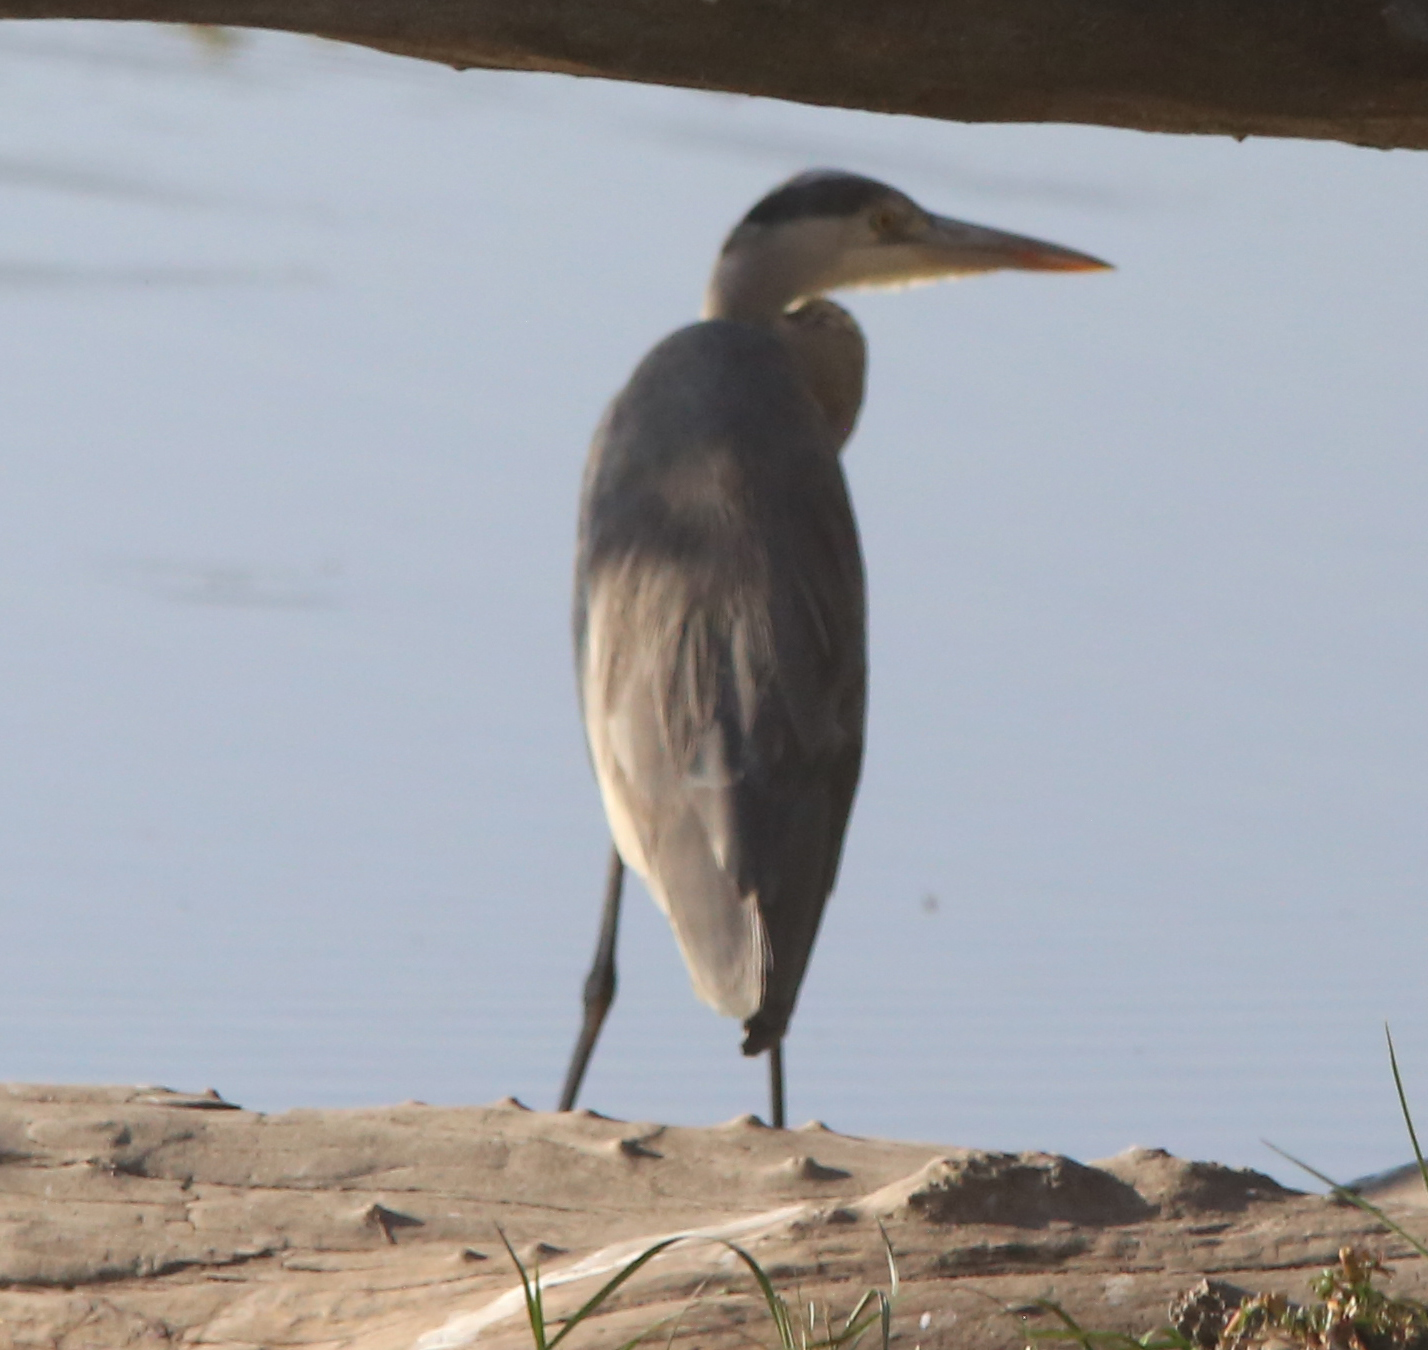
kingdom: Animalia
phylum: Chordata
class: Aves
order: Pelecaniformes
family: Ardeidae
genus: Ardea
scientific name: Ardea cinerea
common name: Grey heron
